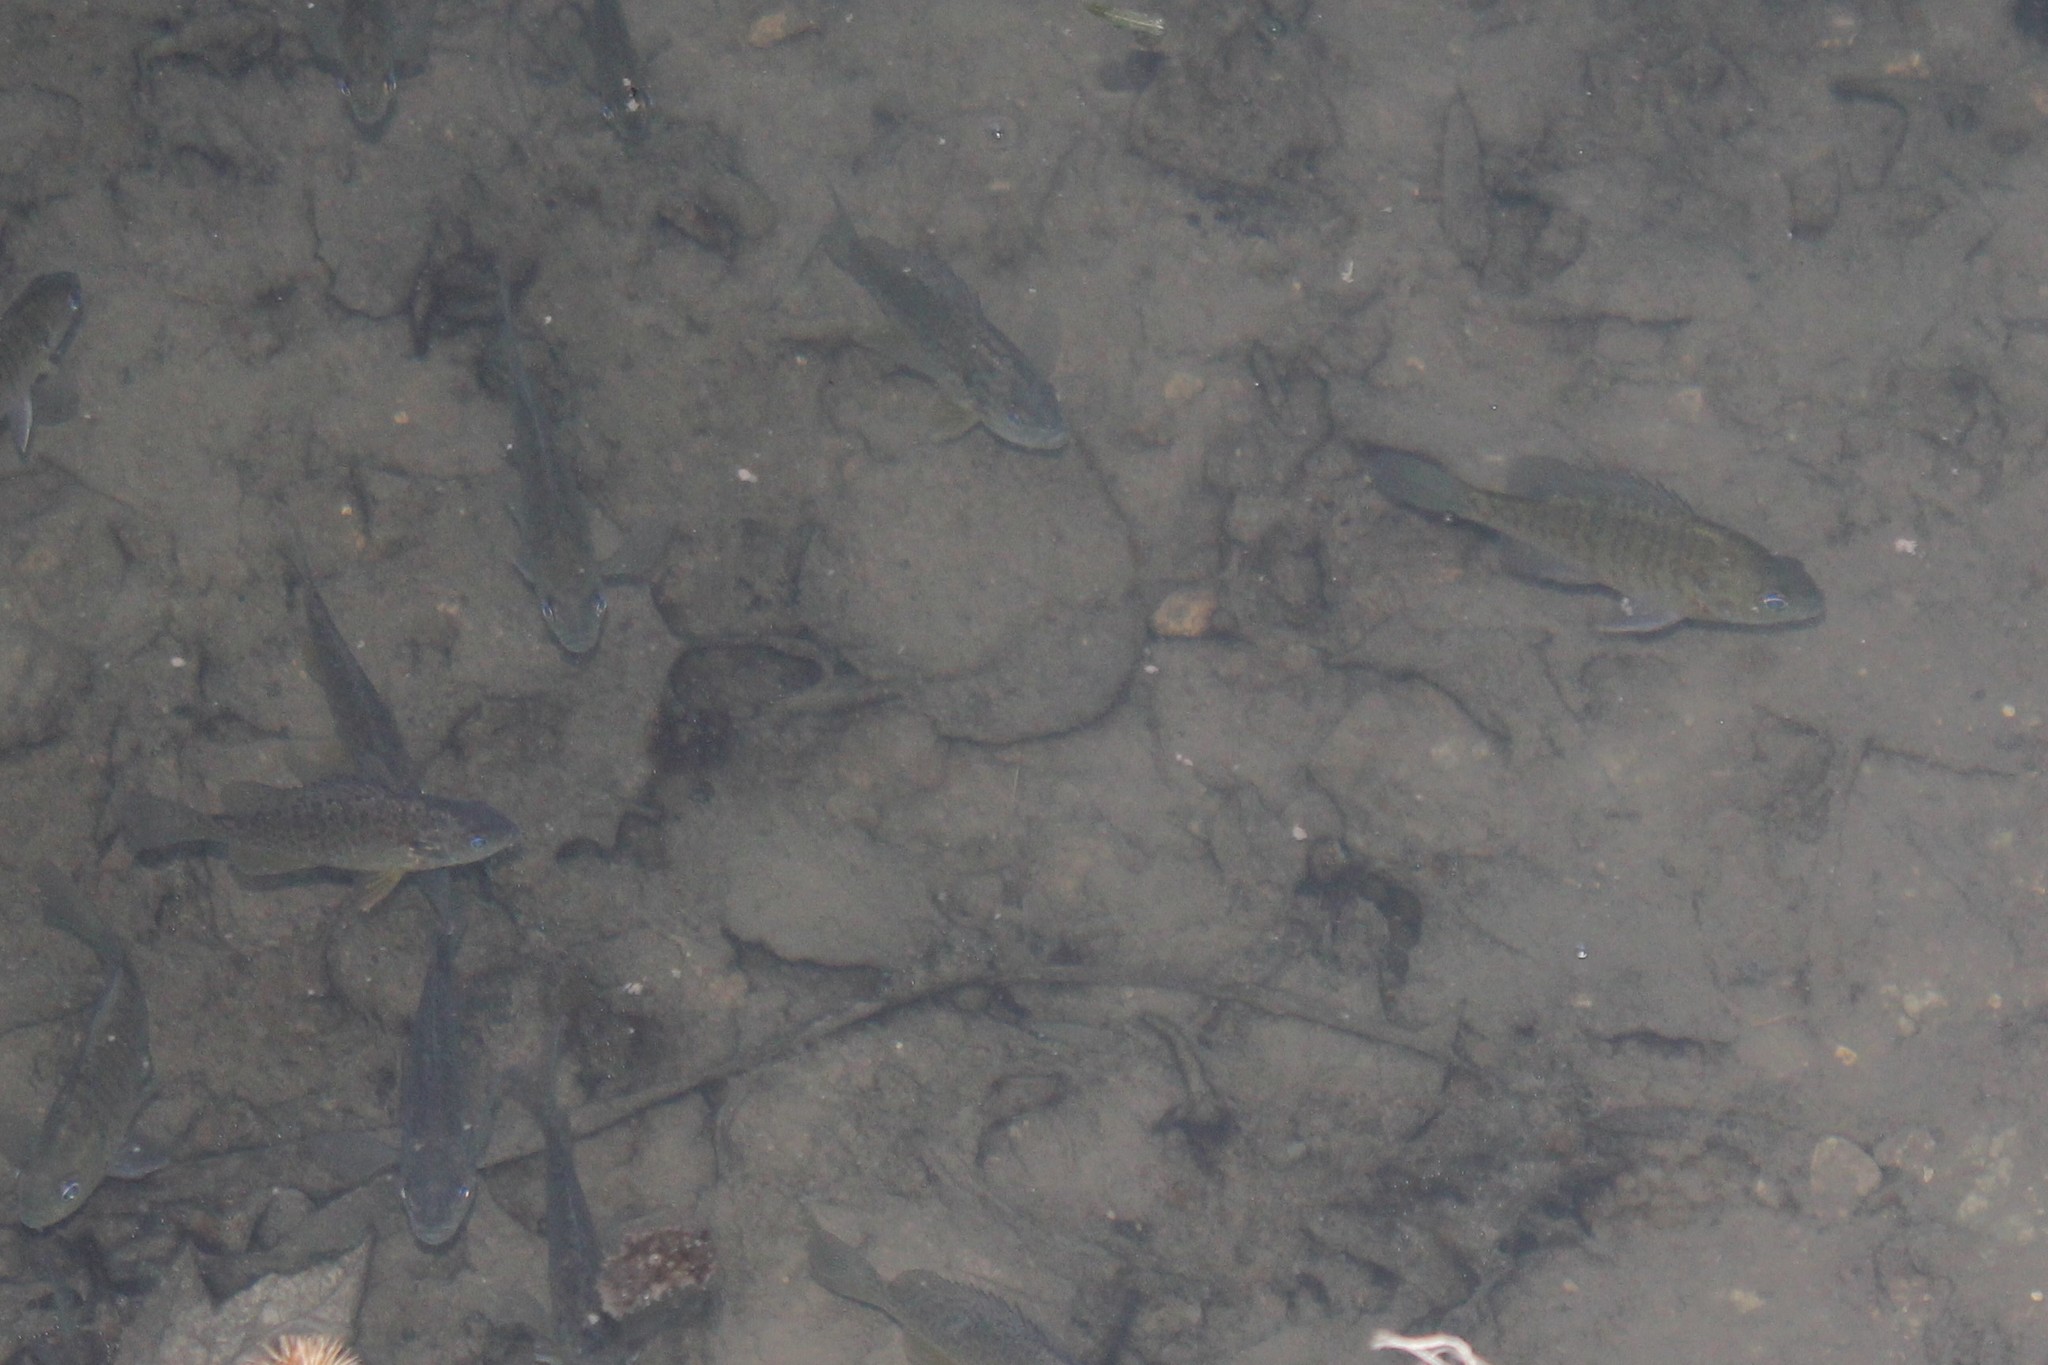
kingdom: Animalia
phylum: Chordata
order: Perciformes
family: Centrarchidae
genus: Lepomis
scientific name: Lepomis macrochirus
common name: Bluegill
